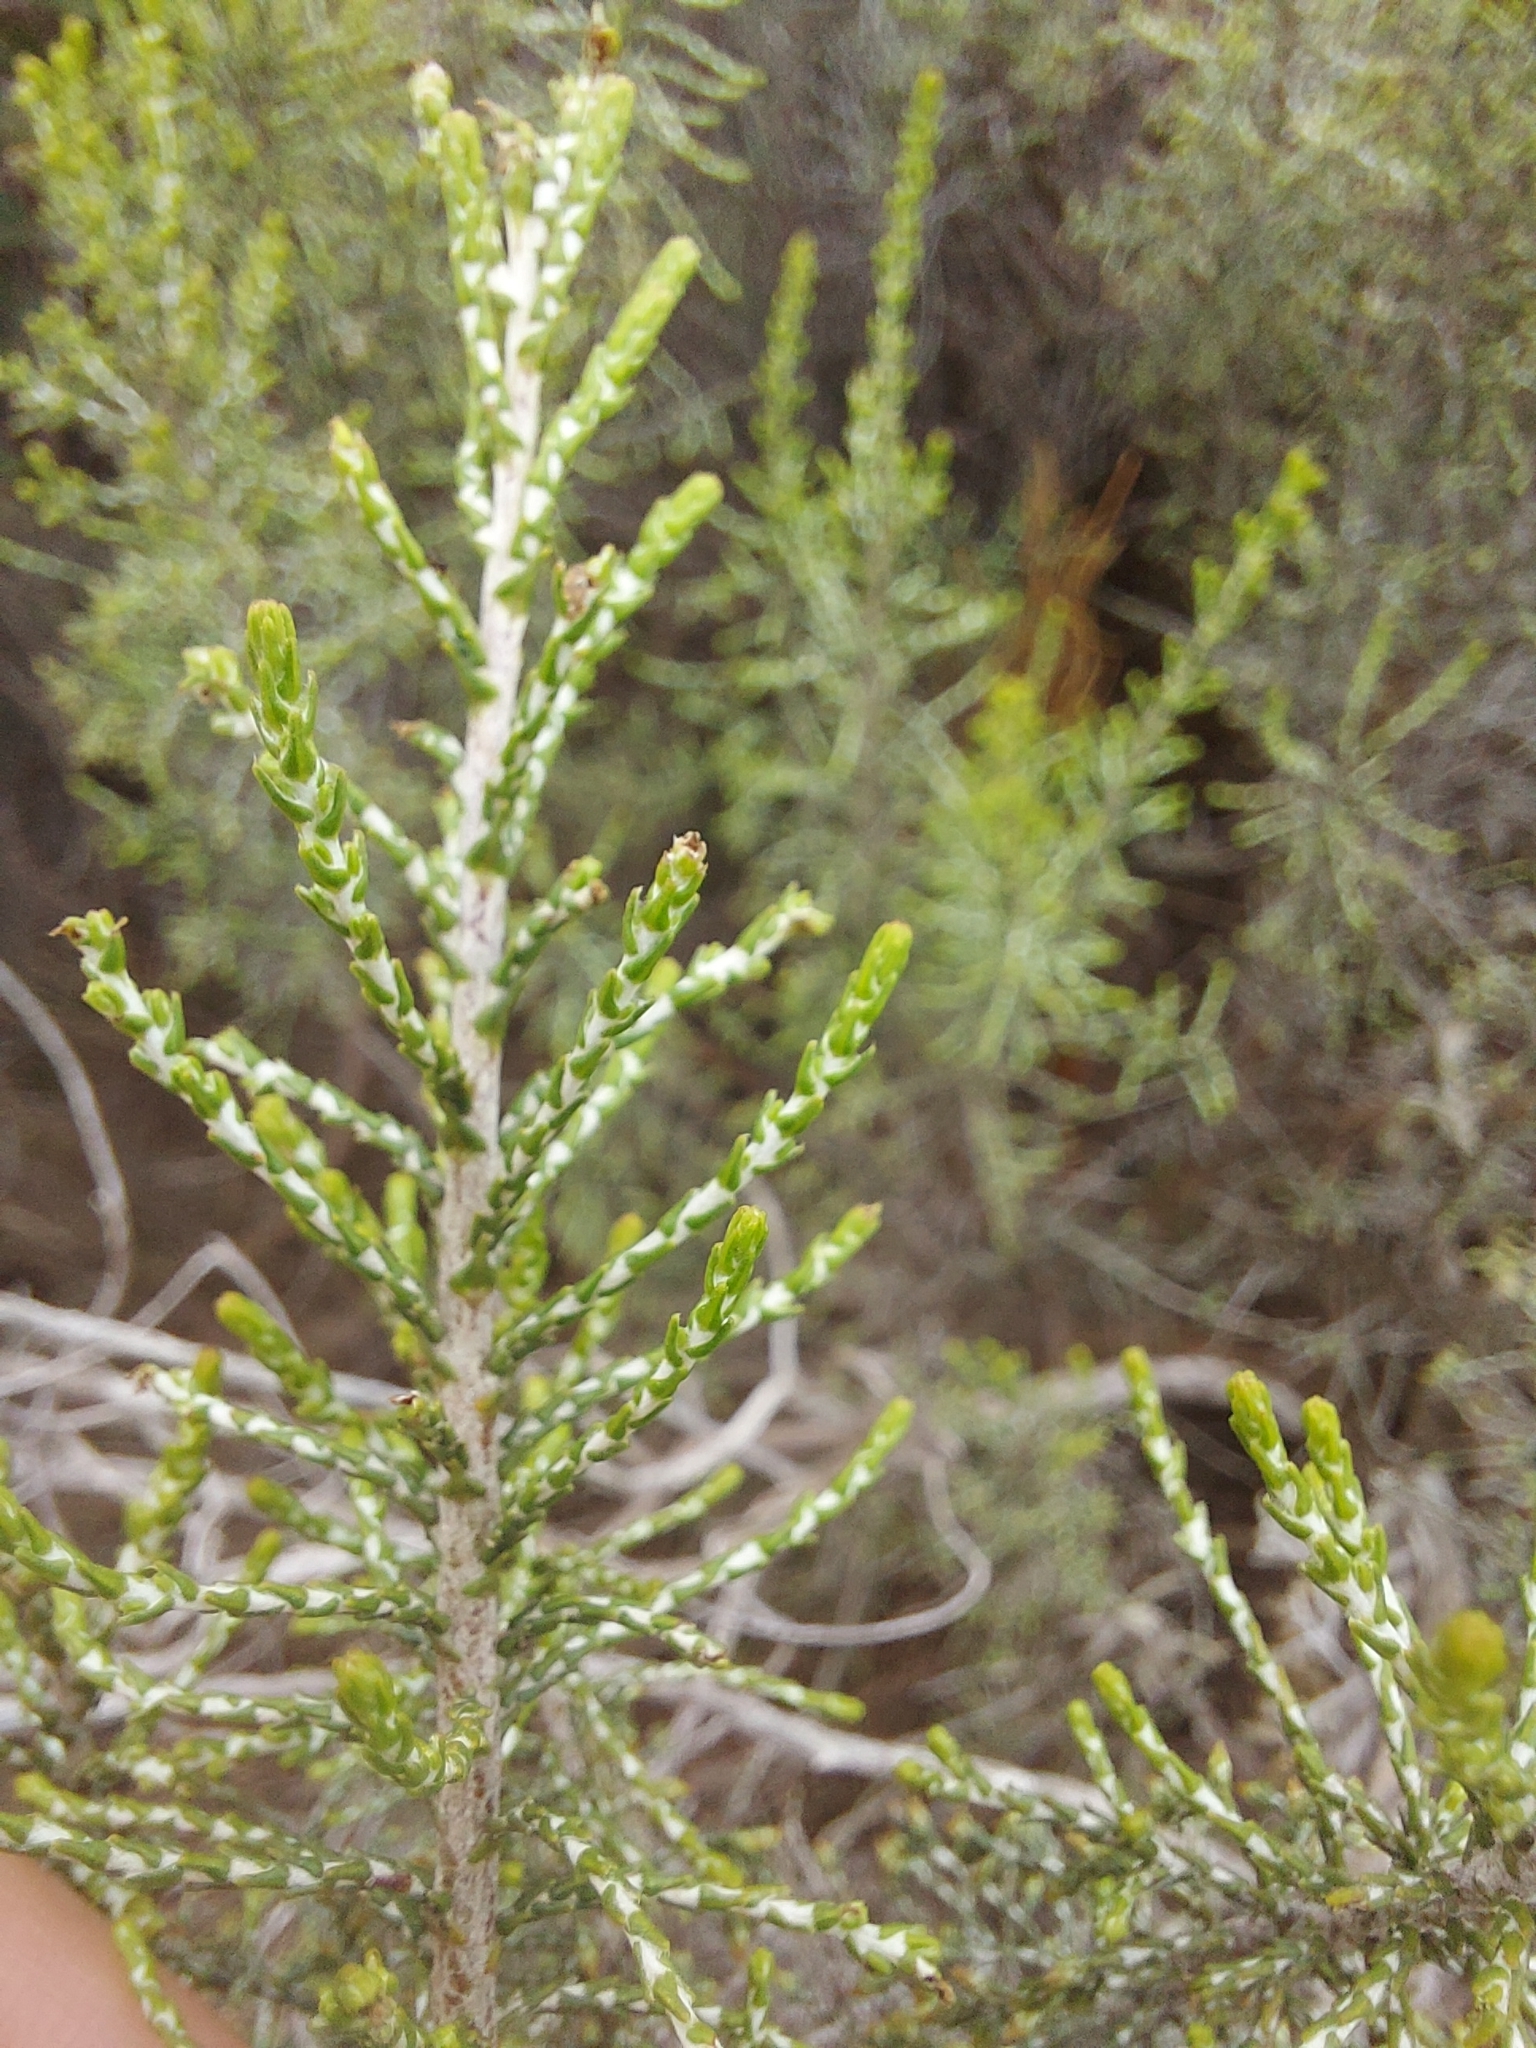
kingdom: Plantae
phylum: Tracheophyta
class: Magnoliopsida
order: Asterales
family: Asteraceae
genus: Dicerothamnus
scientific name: Dicerothamnus rhinocerotis
